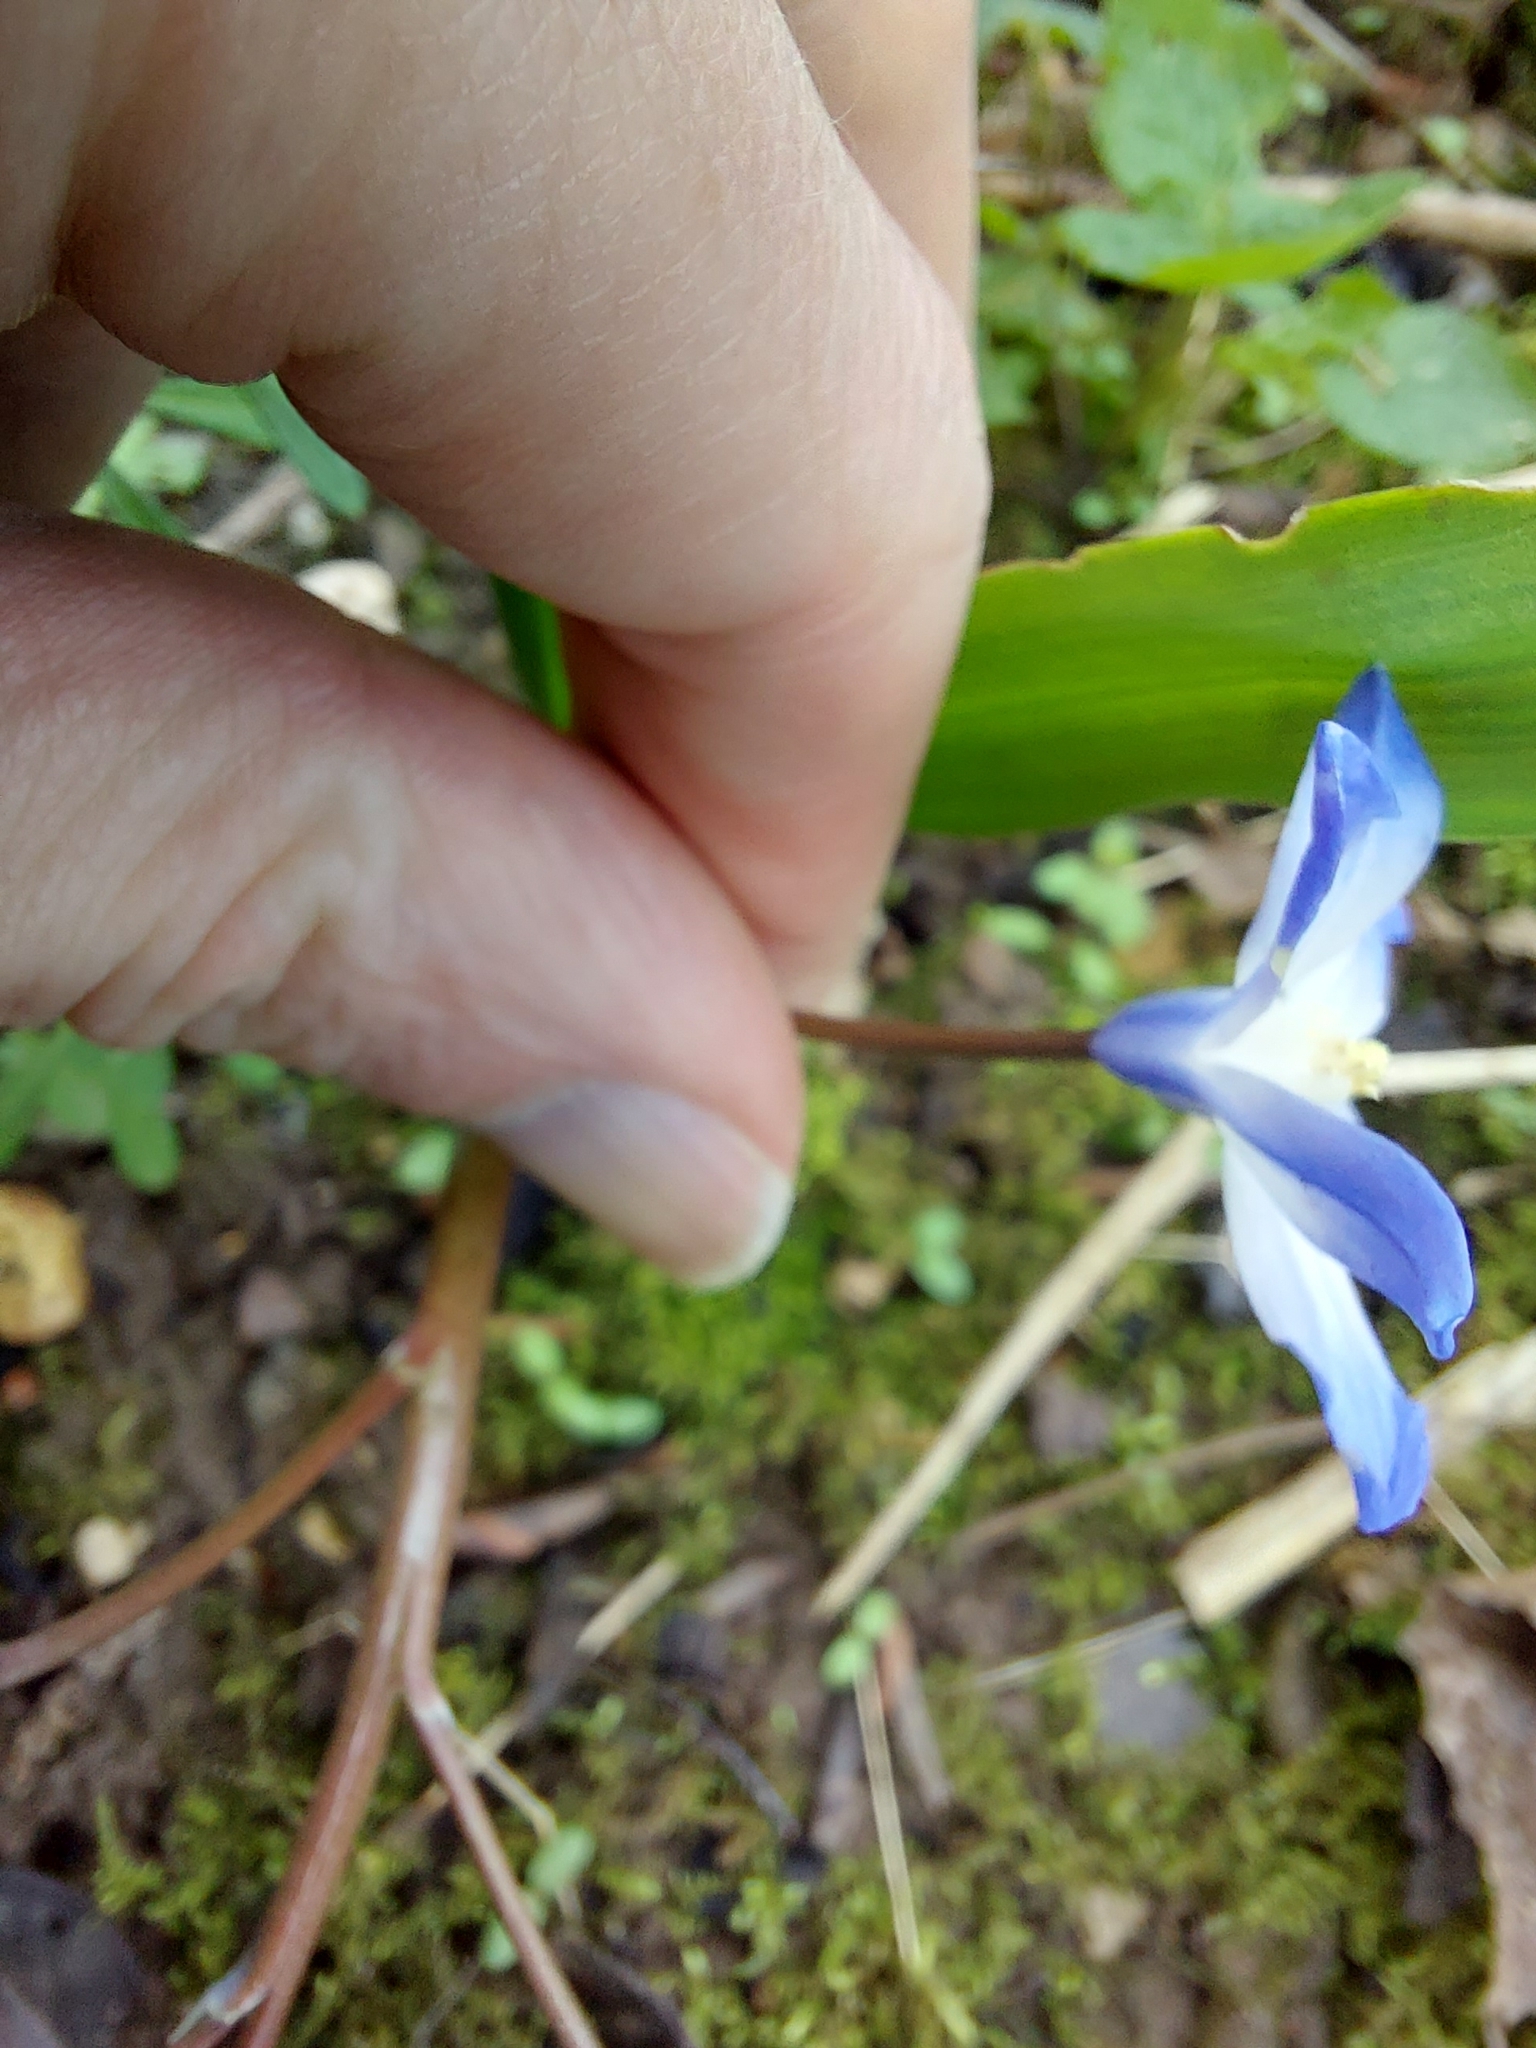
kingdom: Plantae
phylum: Tracheophyta
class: Liliopsida
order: Asparagales
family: Asparagaceae
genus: Scilla
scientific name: Scilla forbesii
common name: Glory-of-the-snow
